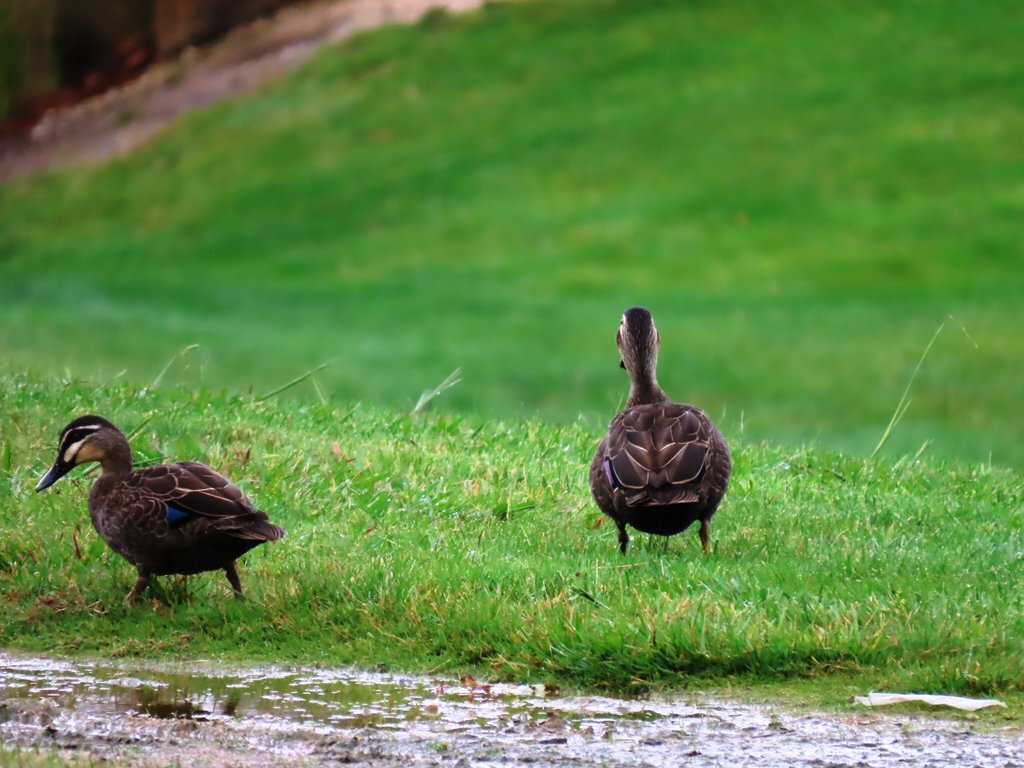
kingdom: Animalia
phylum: Chordata
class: Aves
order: Anseriformes
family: Anatidae
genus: Anas
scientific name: Anas superciliosa
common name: Pacific black duck
